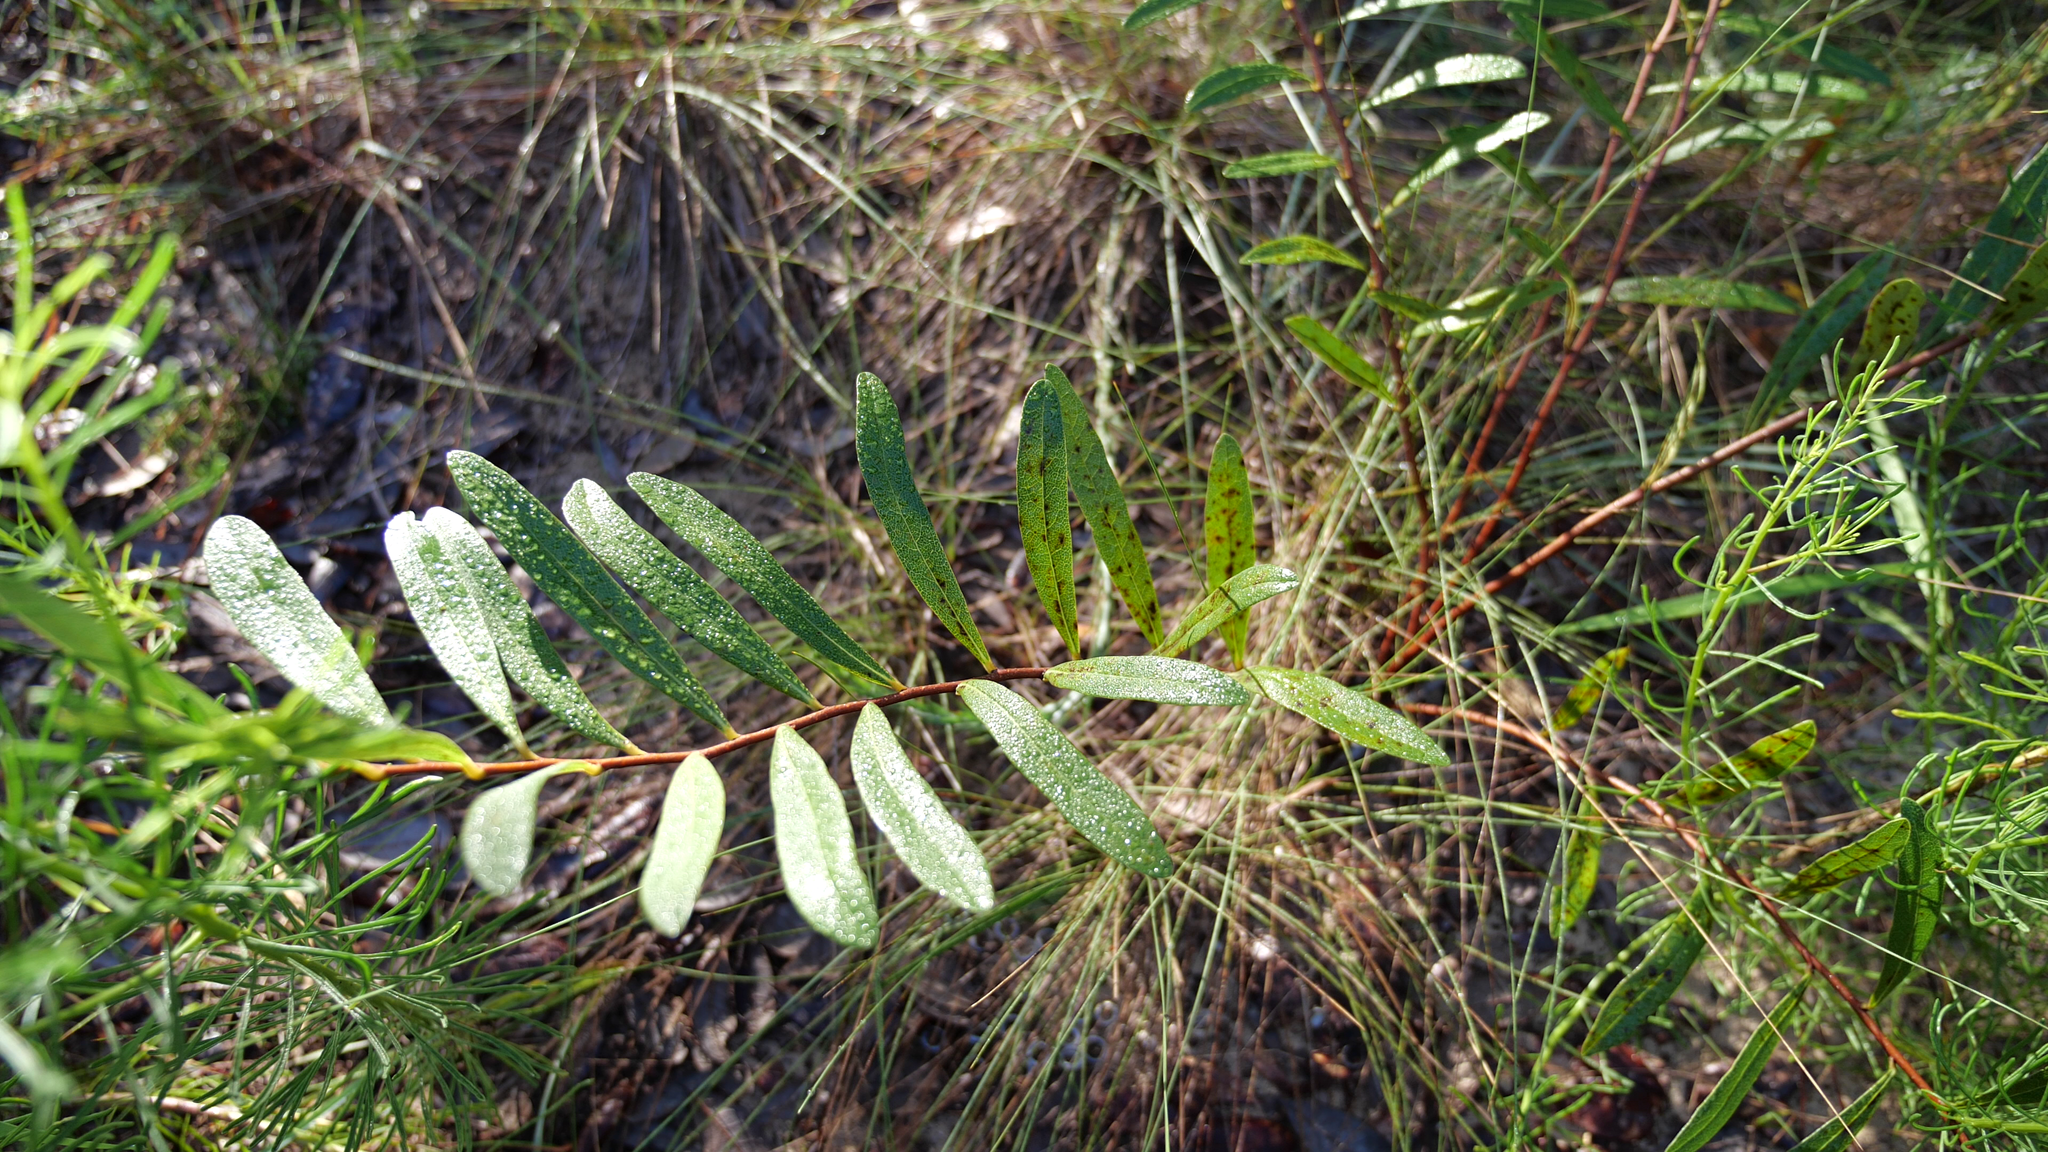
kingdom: Plantae
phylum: Tracheophyta
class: Magnoliopsida
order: Magnoliales
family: Annonaceae
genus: Asimina
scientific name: Asimina pygmaea
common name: Dwarf pawpaw
